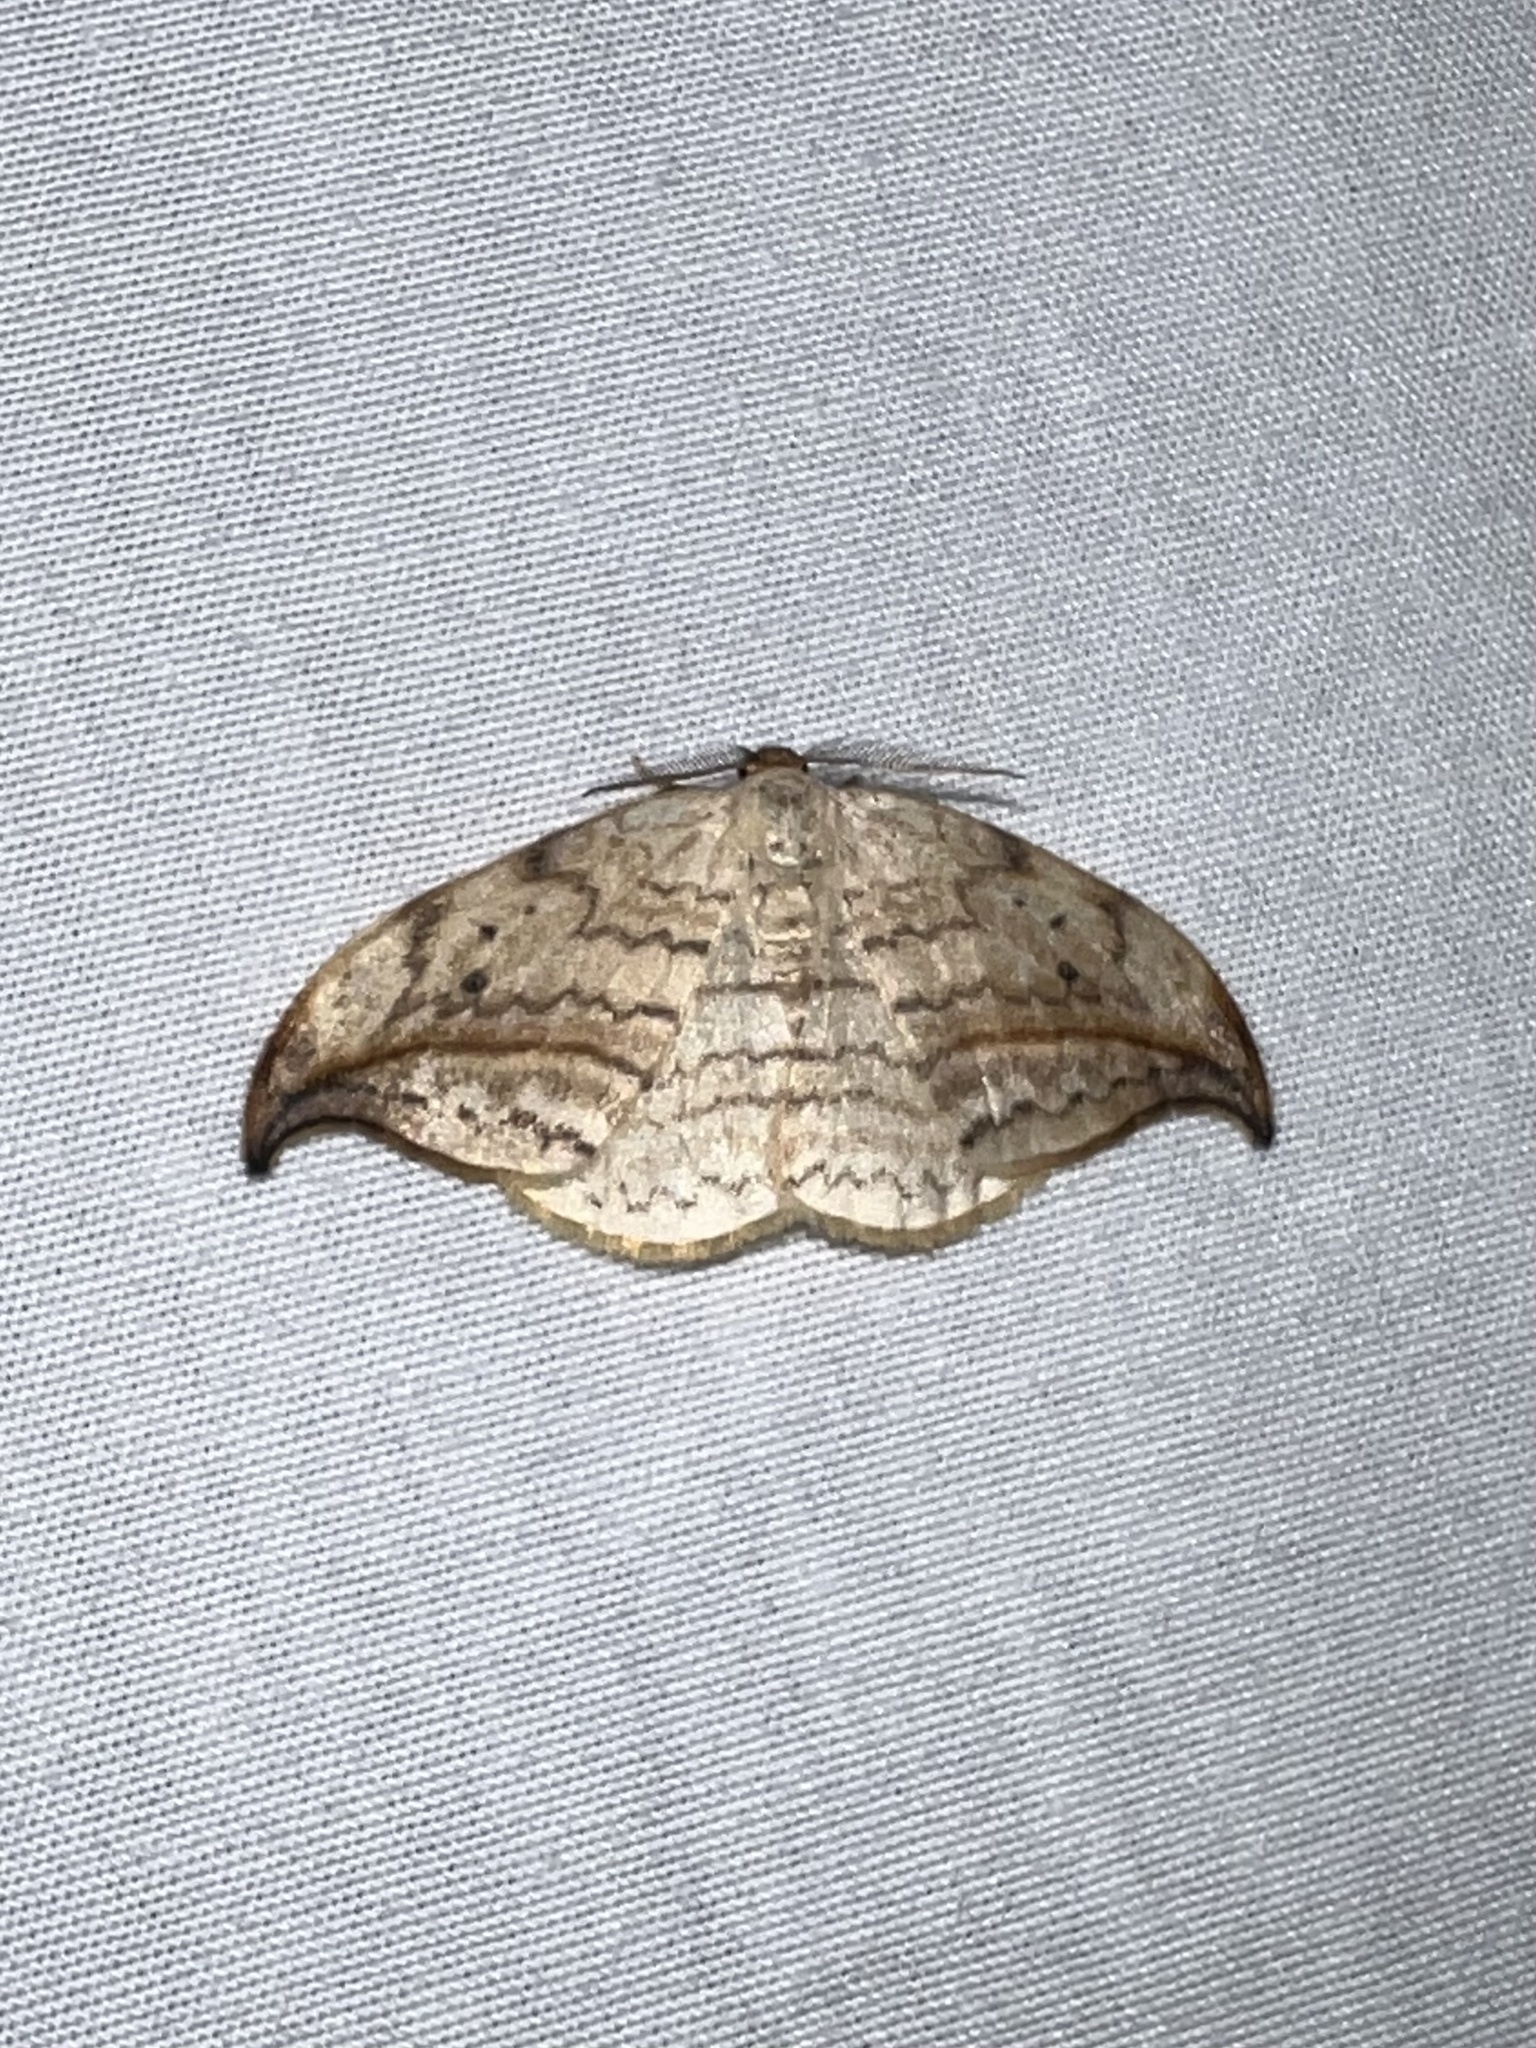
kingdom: Animalia
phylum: Arthropoda
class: Insecta
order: Lepidoptera
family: Drepanidae
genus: Drepana
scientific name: Drepana arcuata
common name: Arched hooktip moth
